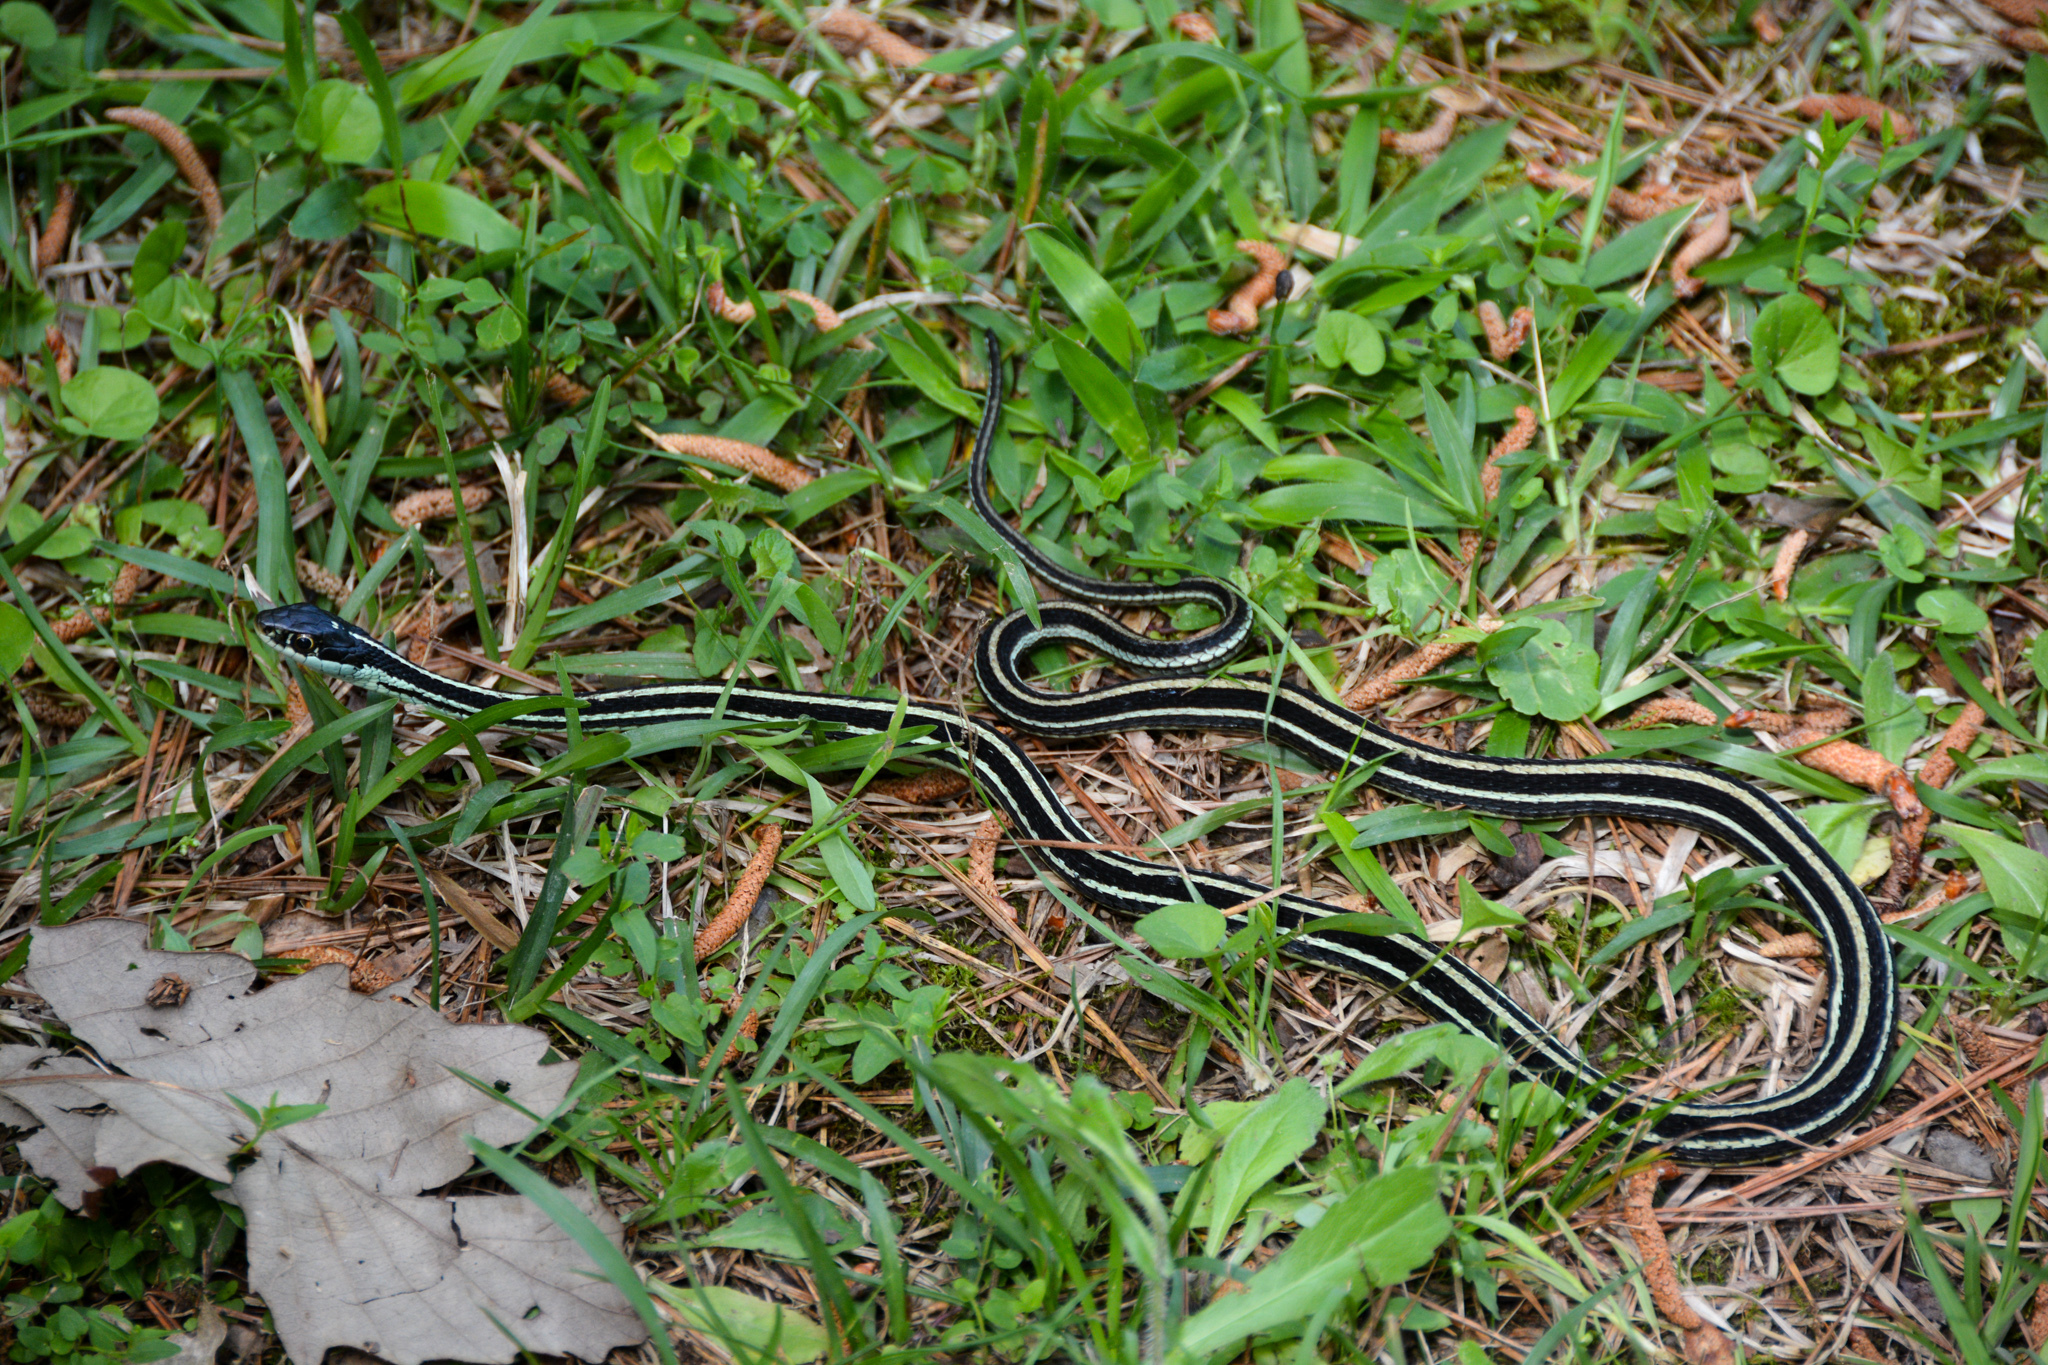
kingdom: Animalia
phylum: Chordata
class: Squamata
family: Colubridae
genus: Thamnophis
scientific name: Thamnophis proximus
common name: Western ribbon snake
